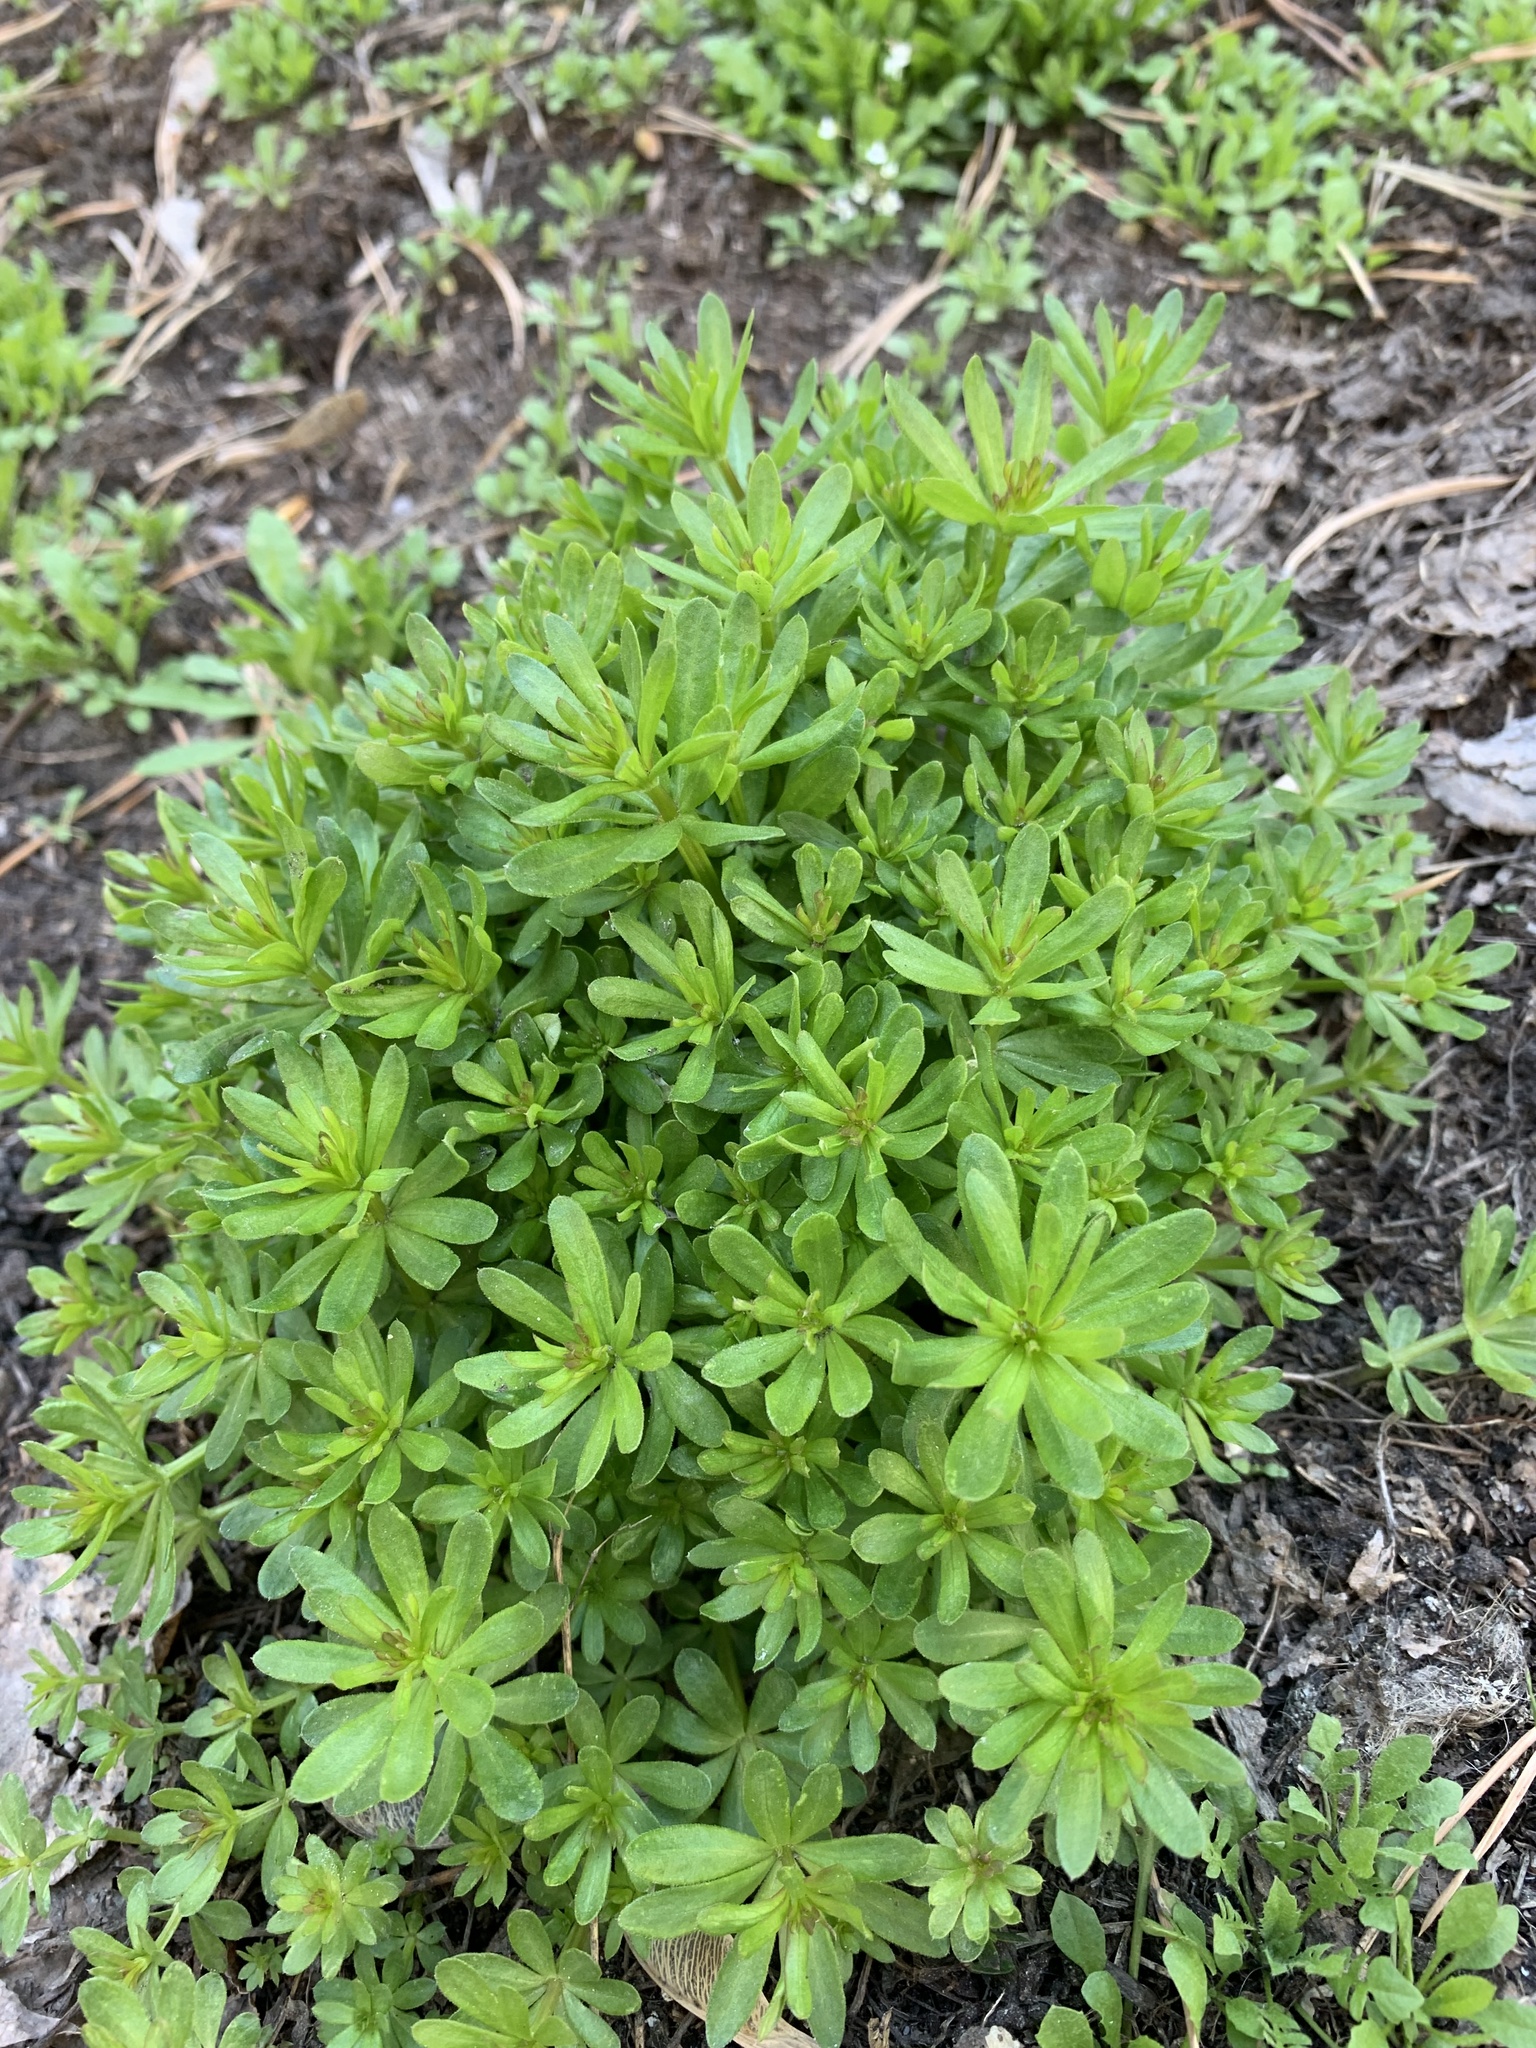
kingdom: Plantae
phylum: Tracheophyta
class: Magnoliopsida
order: Gentianales
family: Rubiaceae
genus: Galium
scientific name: Galium mollugo
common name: Hedge bedstraw
